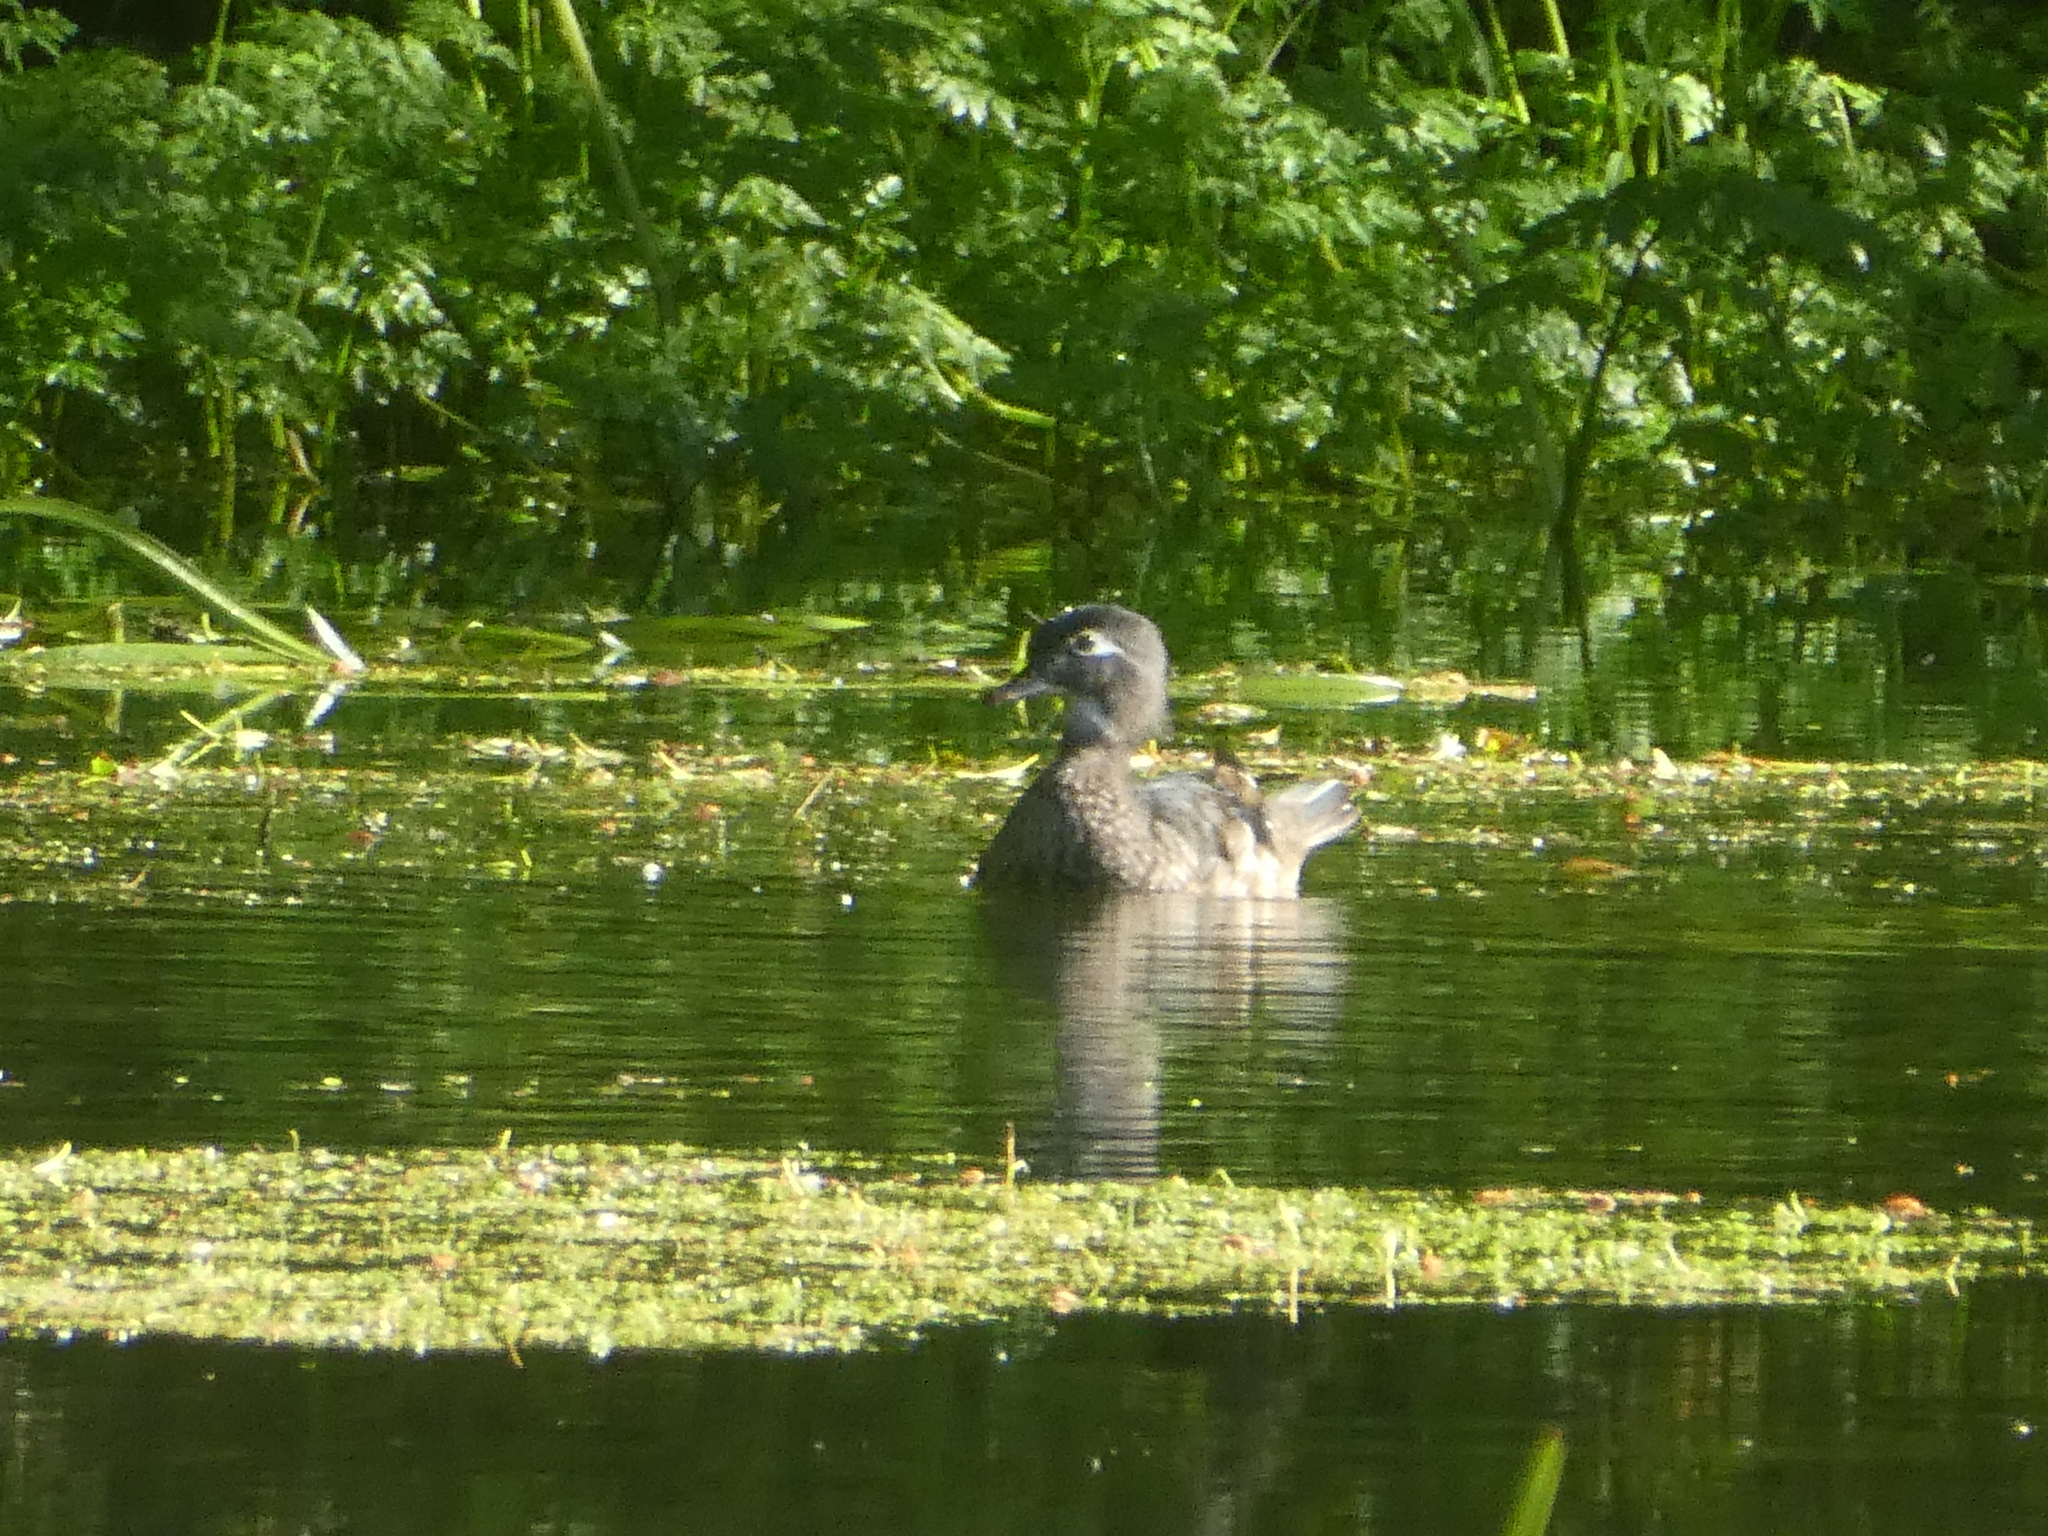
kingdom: Animalia
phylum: Chordata
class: Aves
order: Anseriformes
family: Anatidae
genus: Aix
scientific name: Aix sponsa
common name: Wood duck
